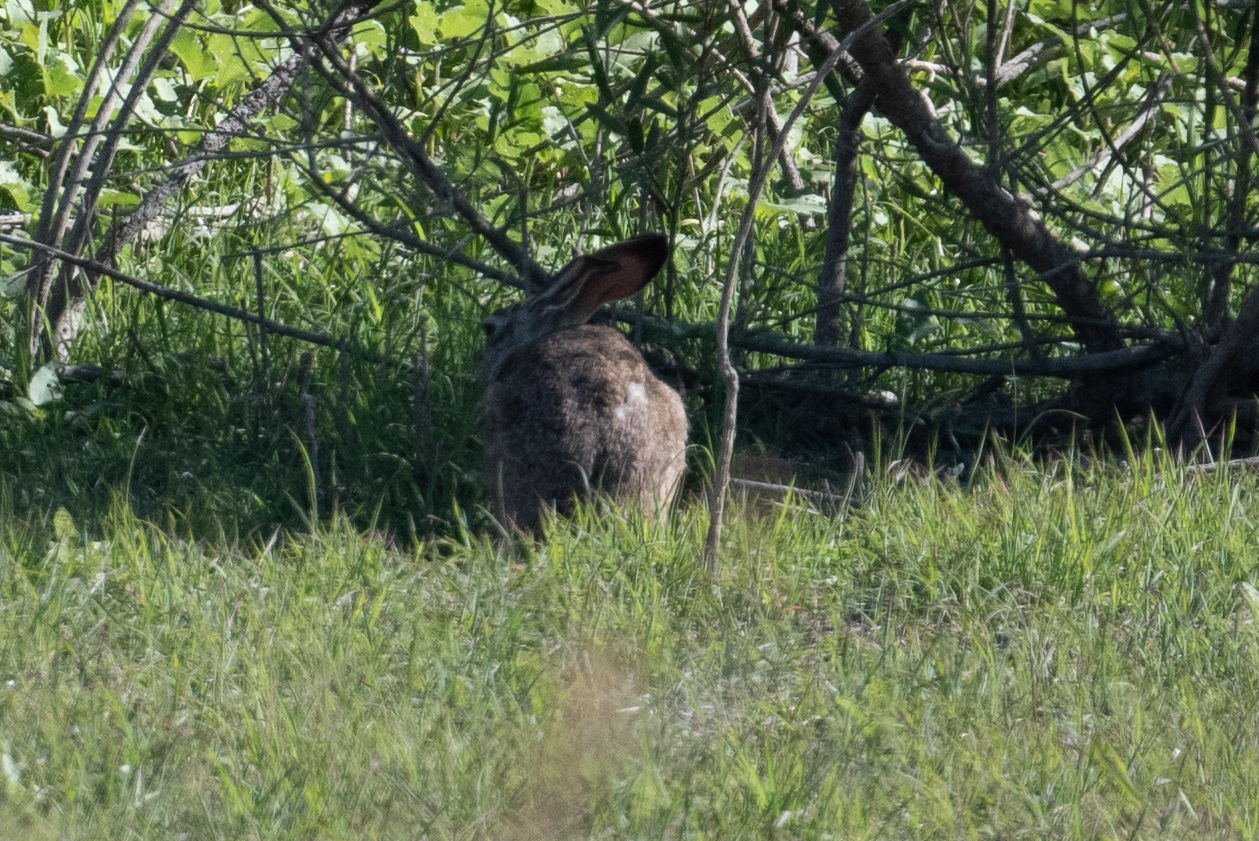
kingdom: Animalia
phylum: Chordata
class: Mammalia
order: Lagomorpha
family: Leporidae
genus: Lepus
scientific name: Lepus californicus
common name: Black-tailed jackrabbit
